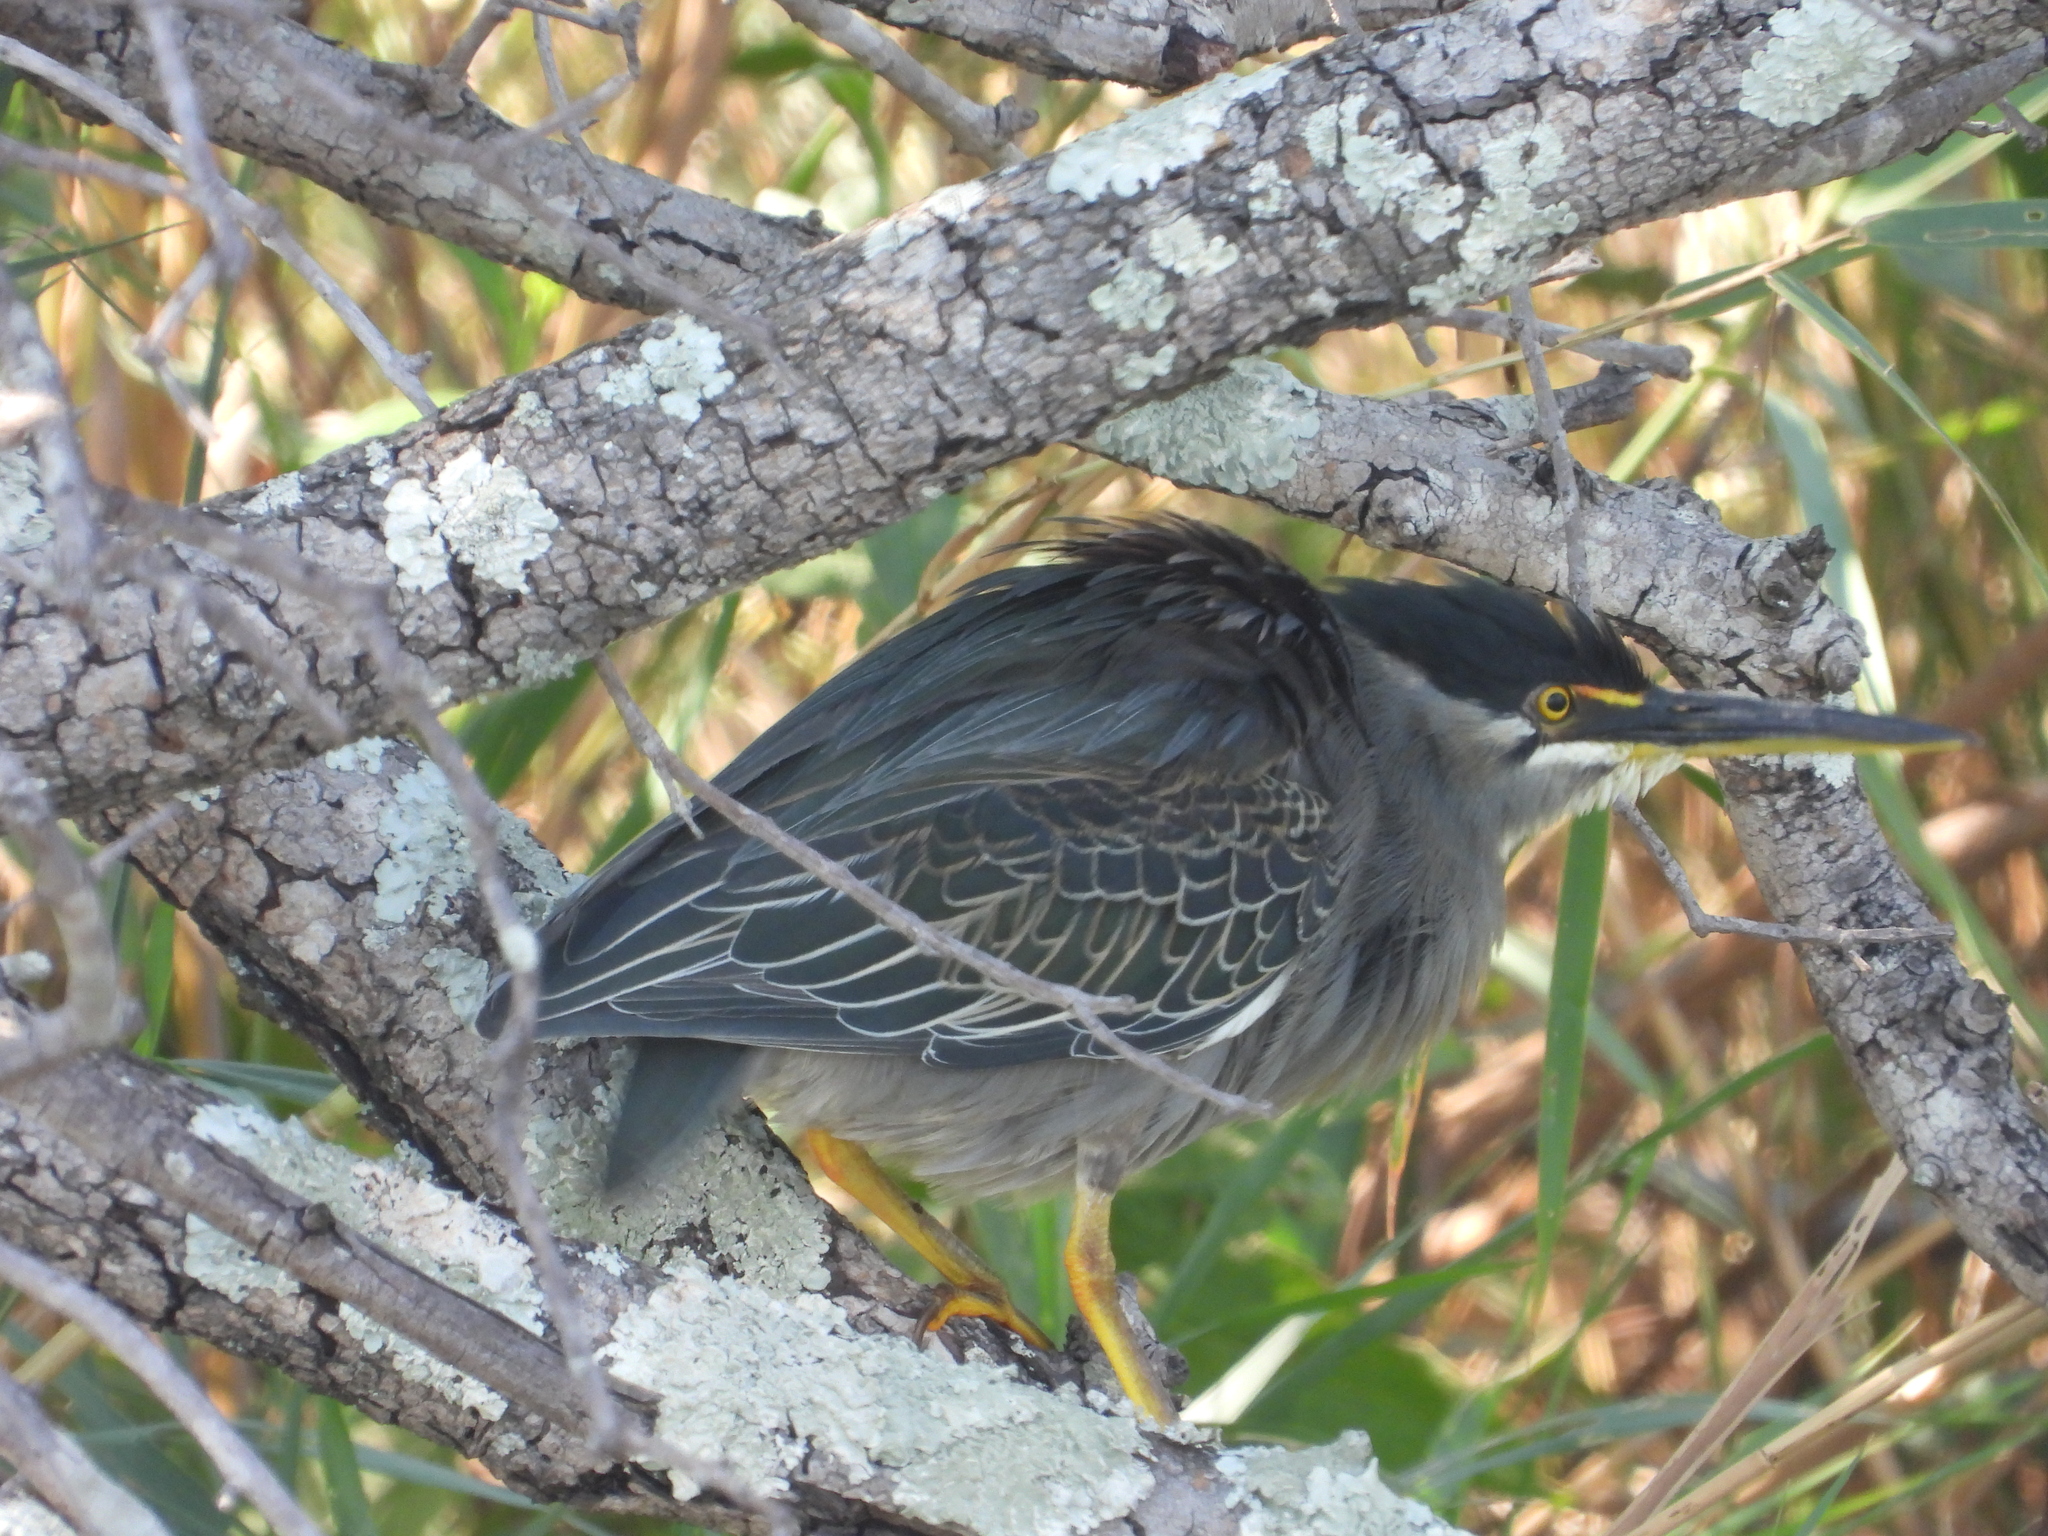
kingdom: Animalia
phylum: Chordata
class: Aves
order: Pelecaniformes
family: Ardeidae
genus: Butorides
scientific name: Butorides striata
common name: Striated heron
